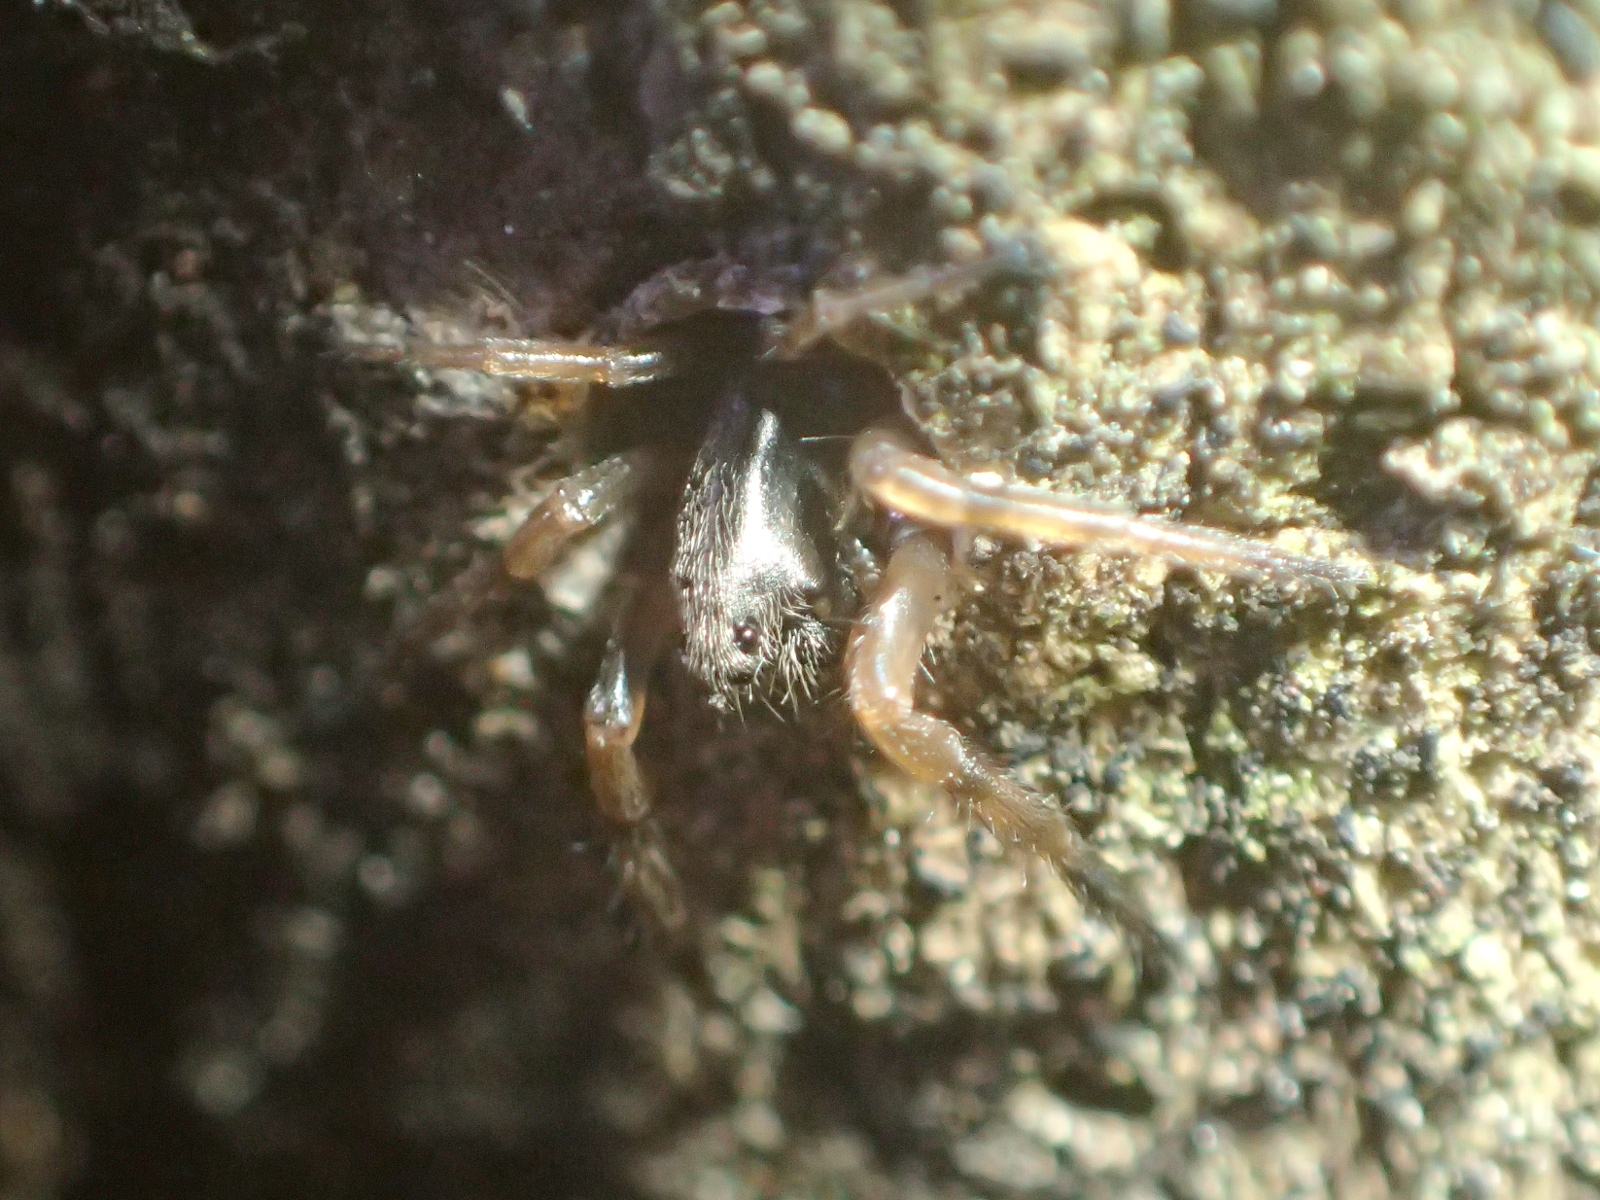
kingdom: Animalia
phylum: Arthropoda
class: Arachnida
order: Araneae
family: Cycloctenidae
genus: Plectophanes
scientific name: Plectophanes
